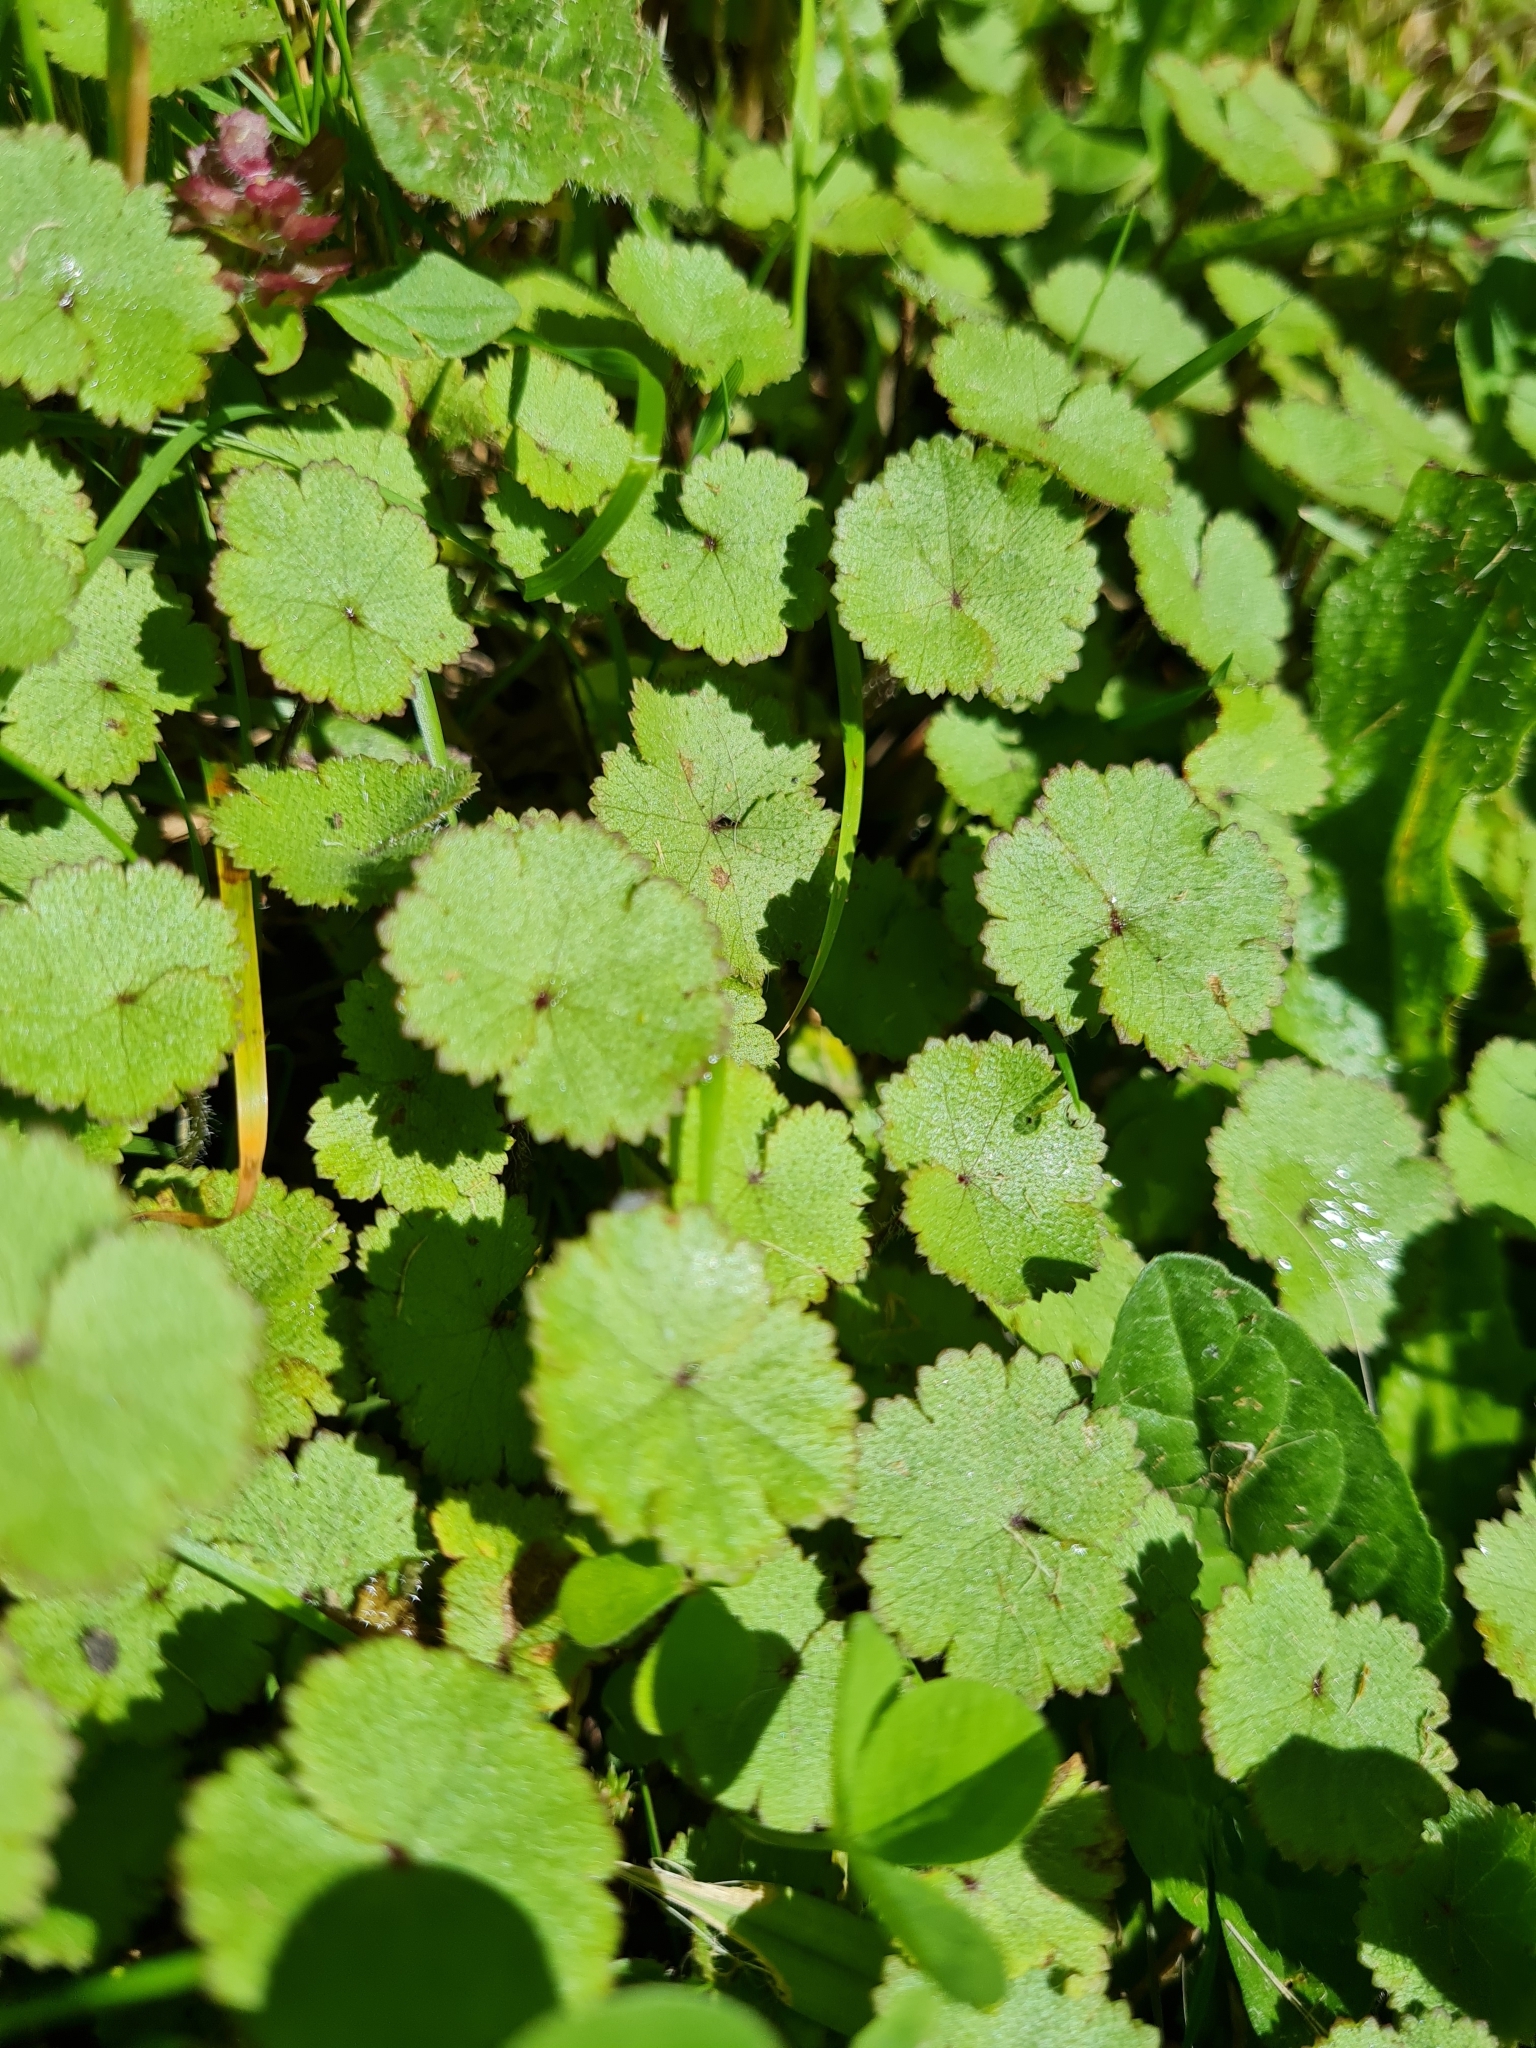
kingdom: Plantae
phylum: Tracheophyta
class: Magnoliopsida
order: Apiales
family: Araliaceae
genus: Hydrocotyle
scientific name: Hydrocotyle moschata
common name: Hairy pennywort
